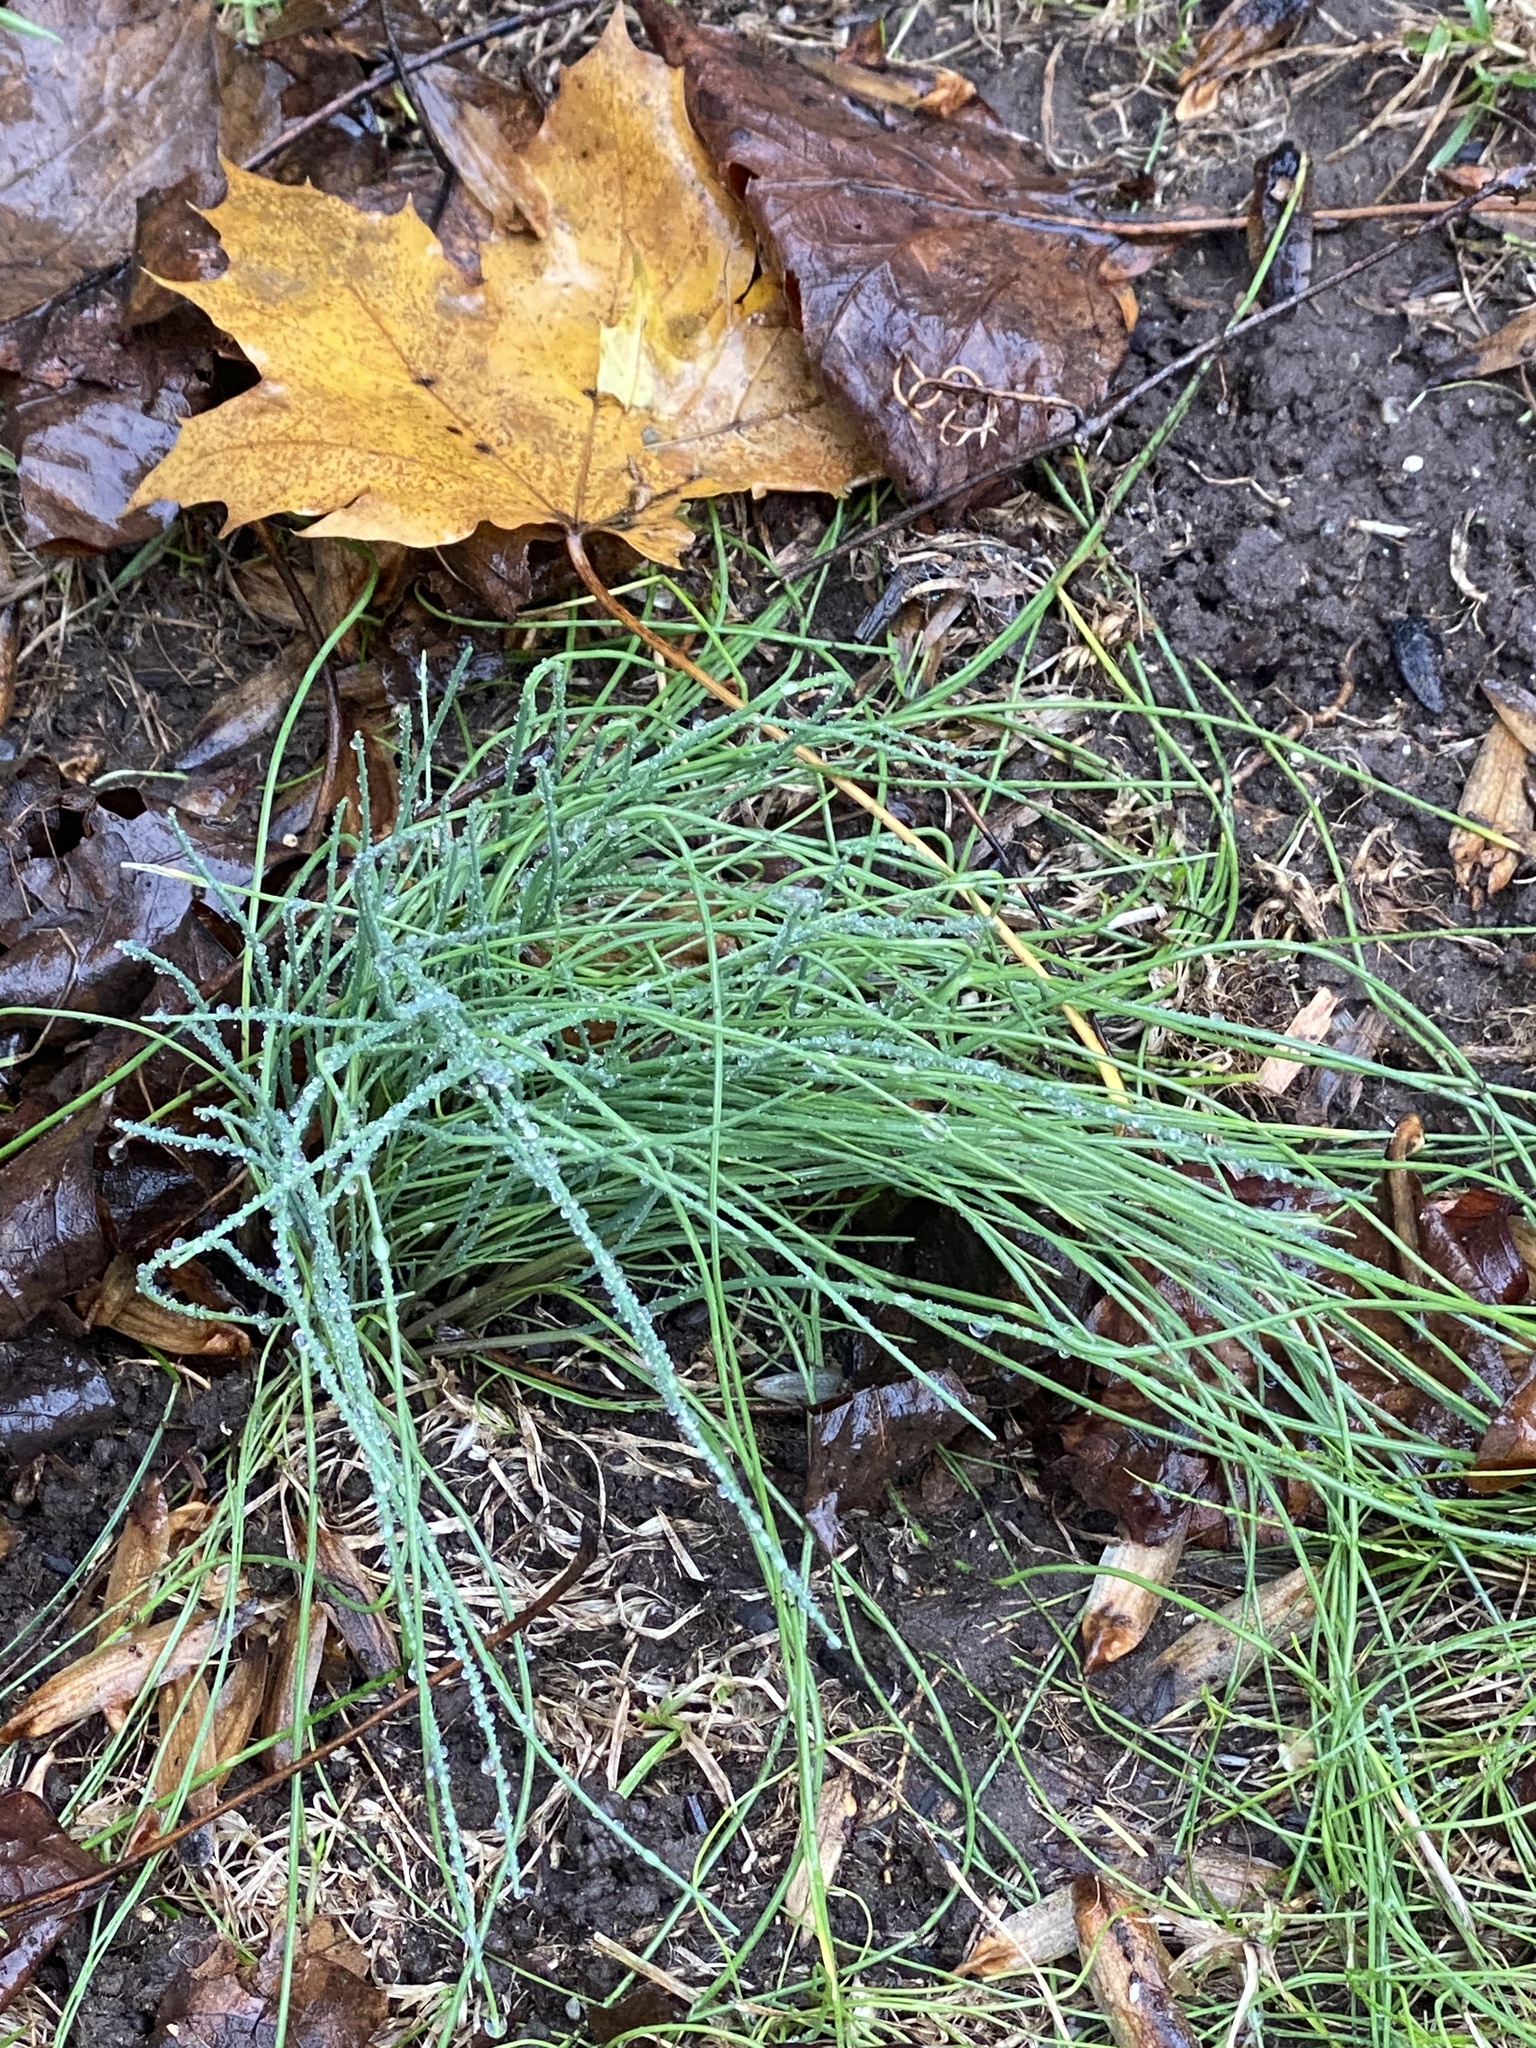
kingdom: Plantae
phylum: Tracheophyta
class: Liliopsida
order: Asparagales
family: Amaryllidaceae
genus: Allium
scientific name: Allium vineale
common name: Crow garlic
